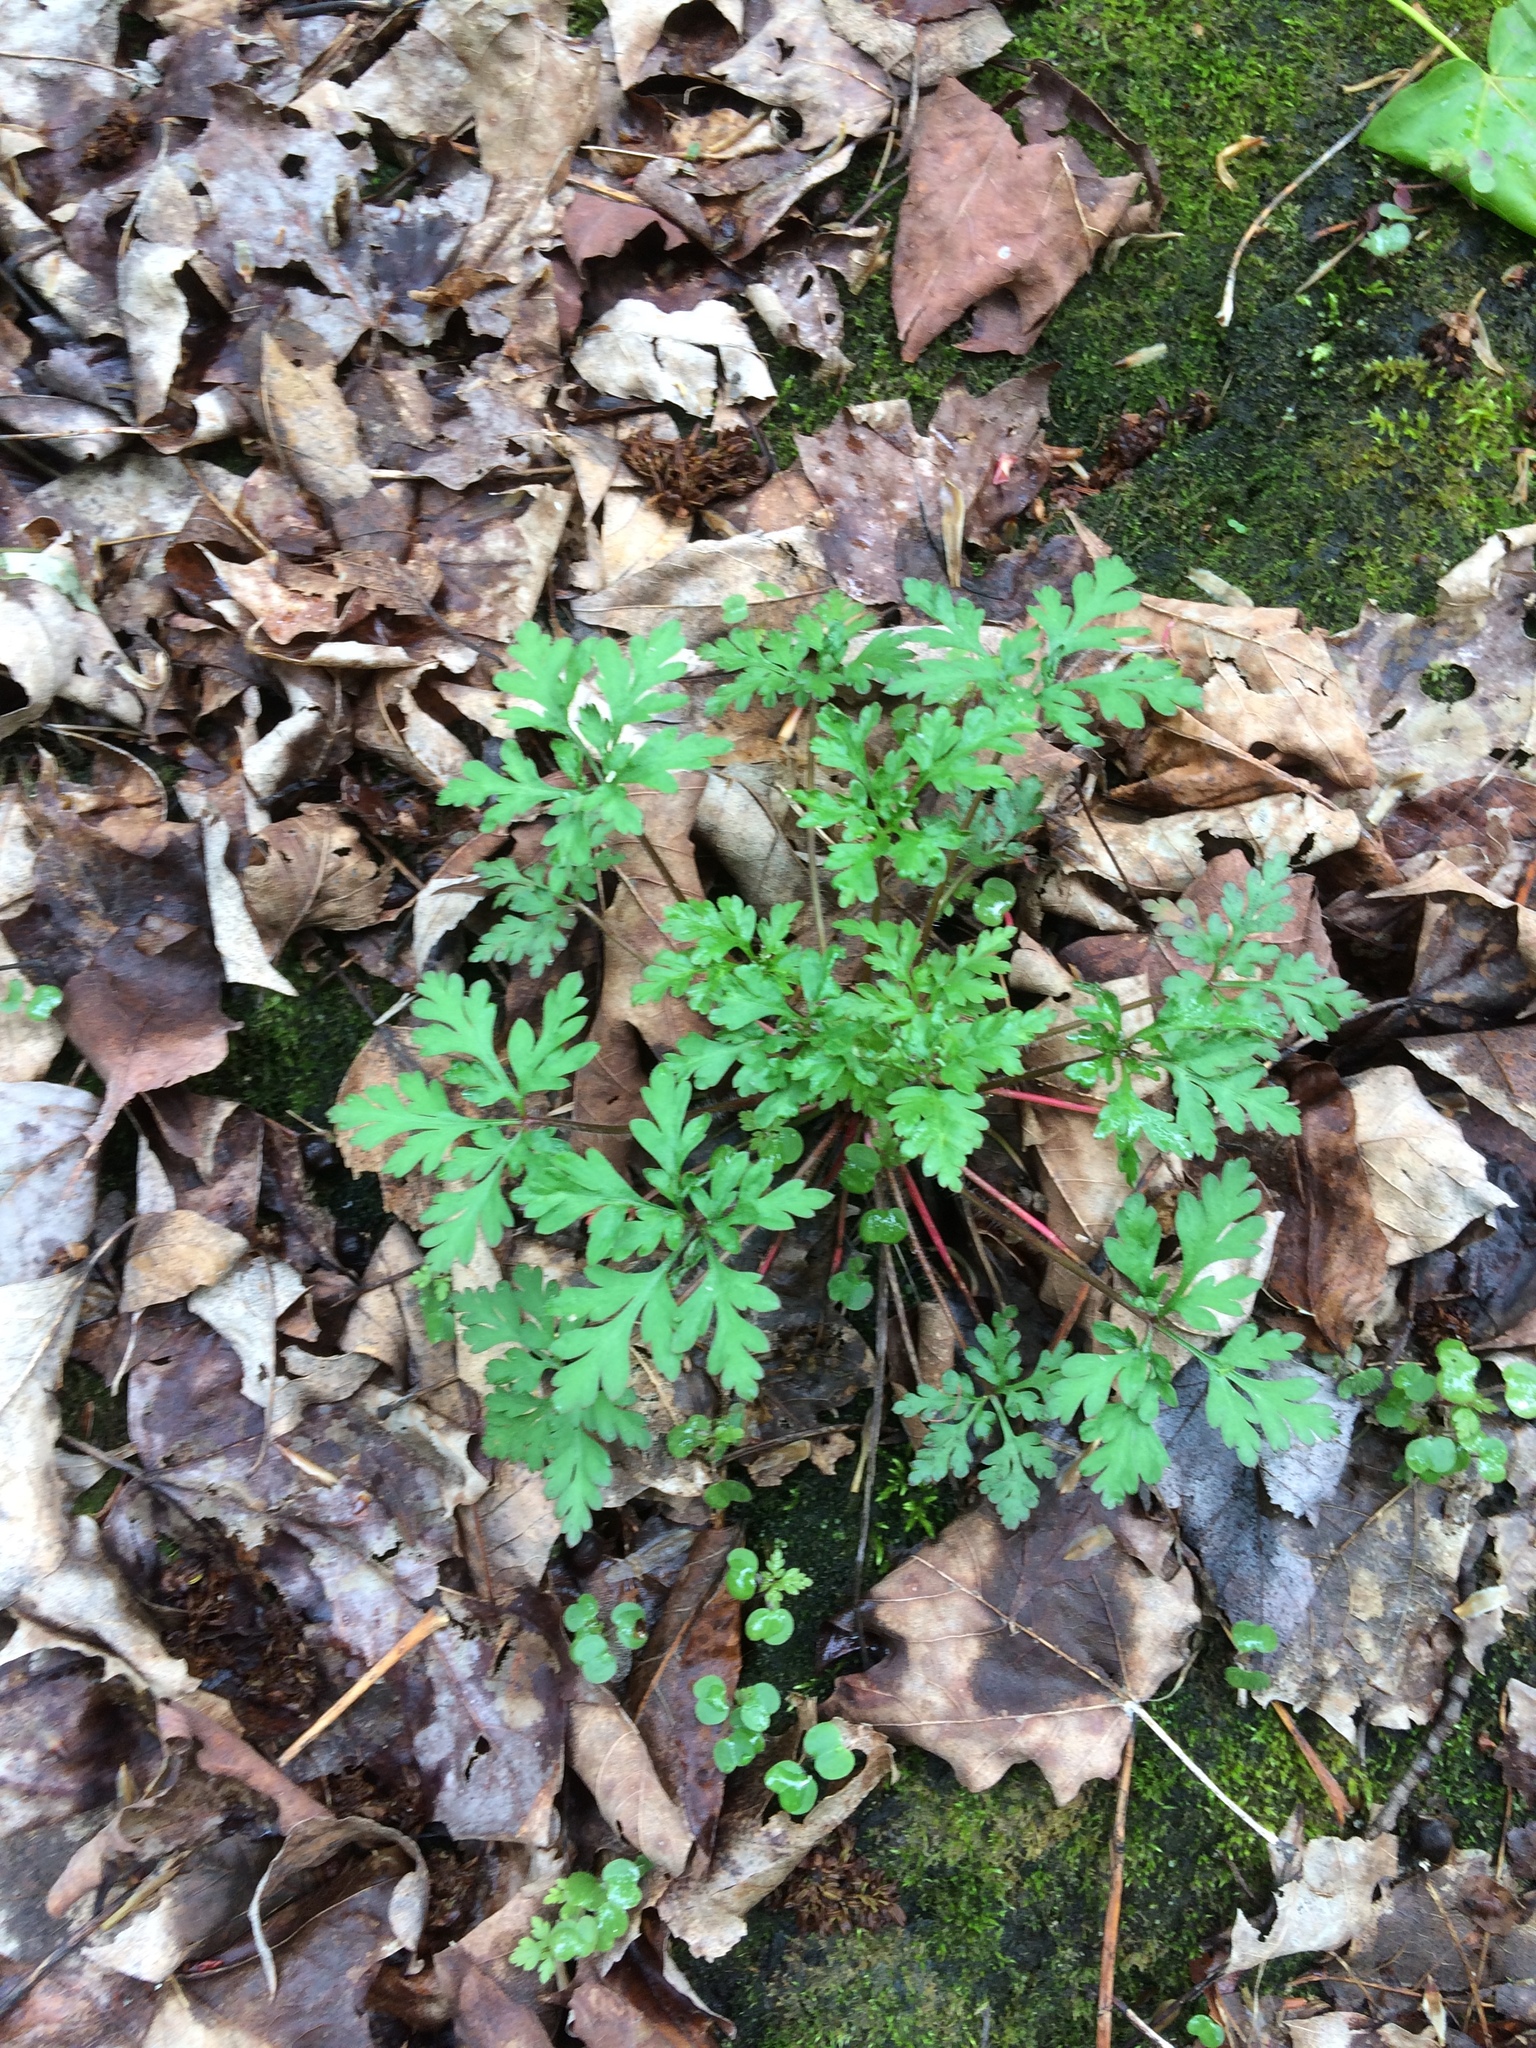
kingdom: Plantae
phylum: Tracheophyta
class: Magnoliopsida
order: Geraniales
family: Geraniaceae
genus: Geranium
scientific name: Geranium robertianum
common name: Herb-robert
